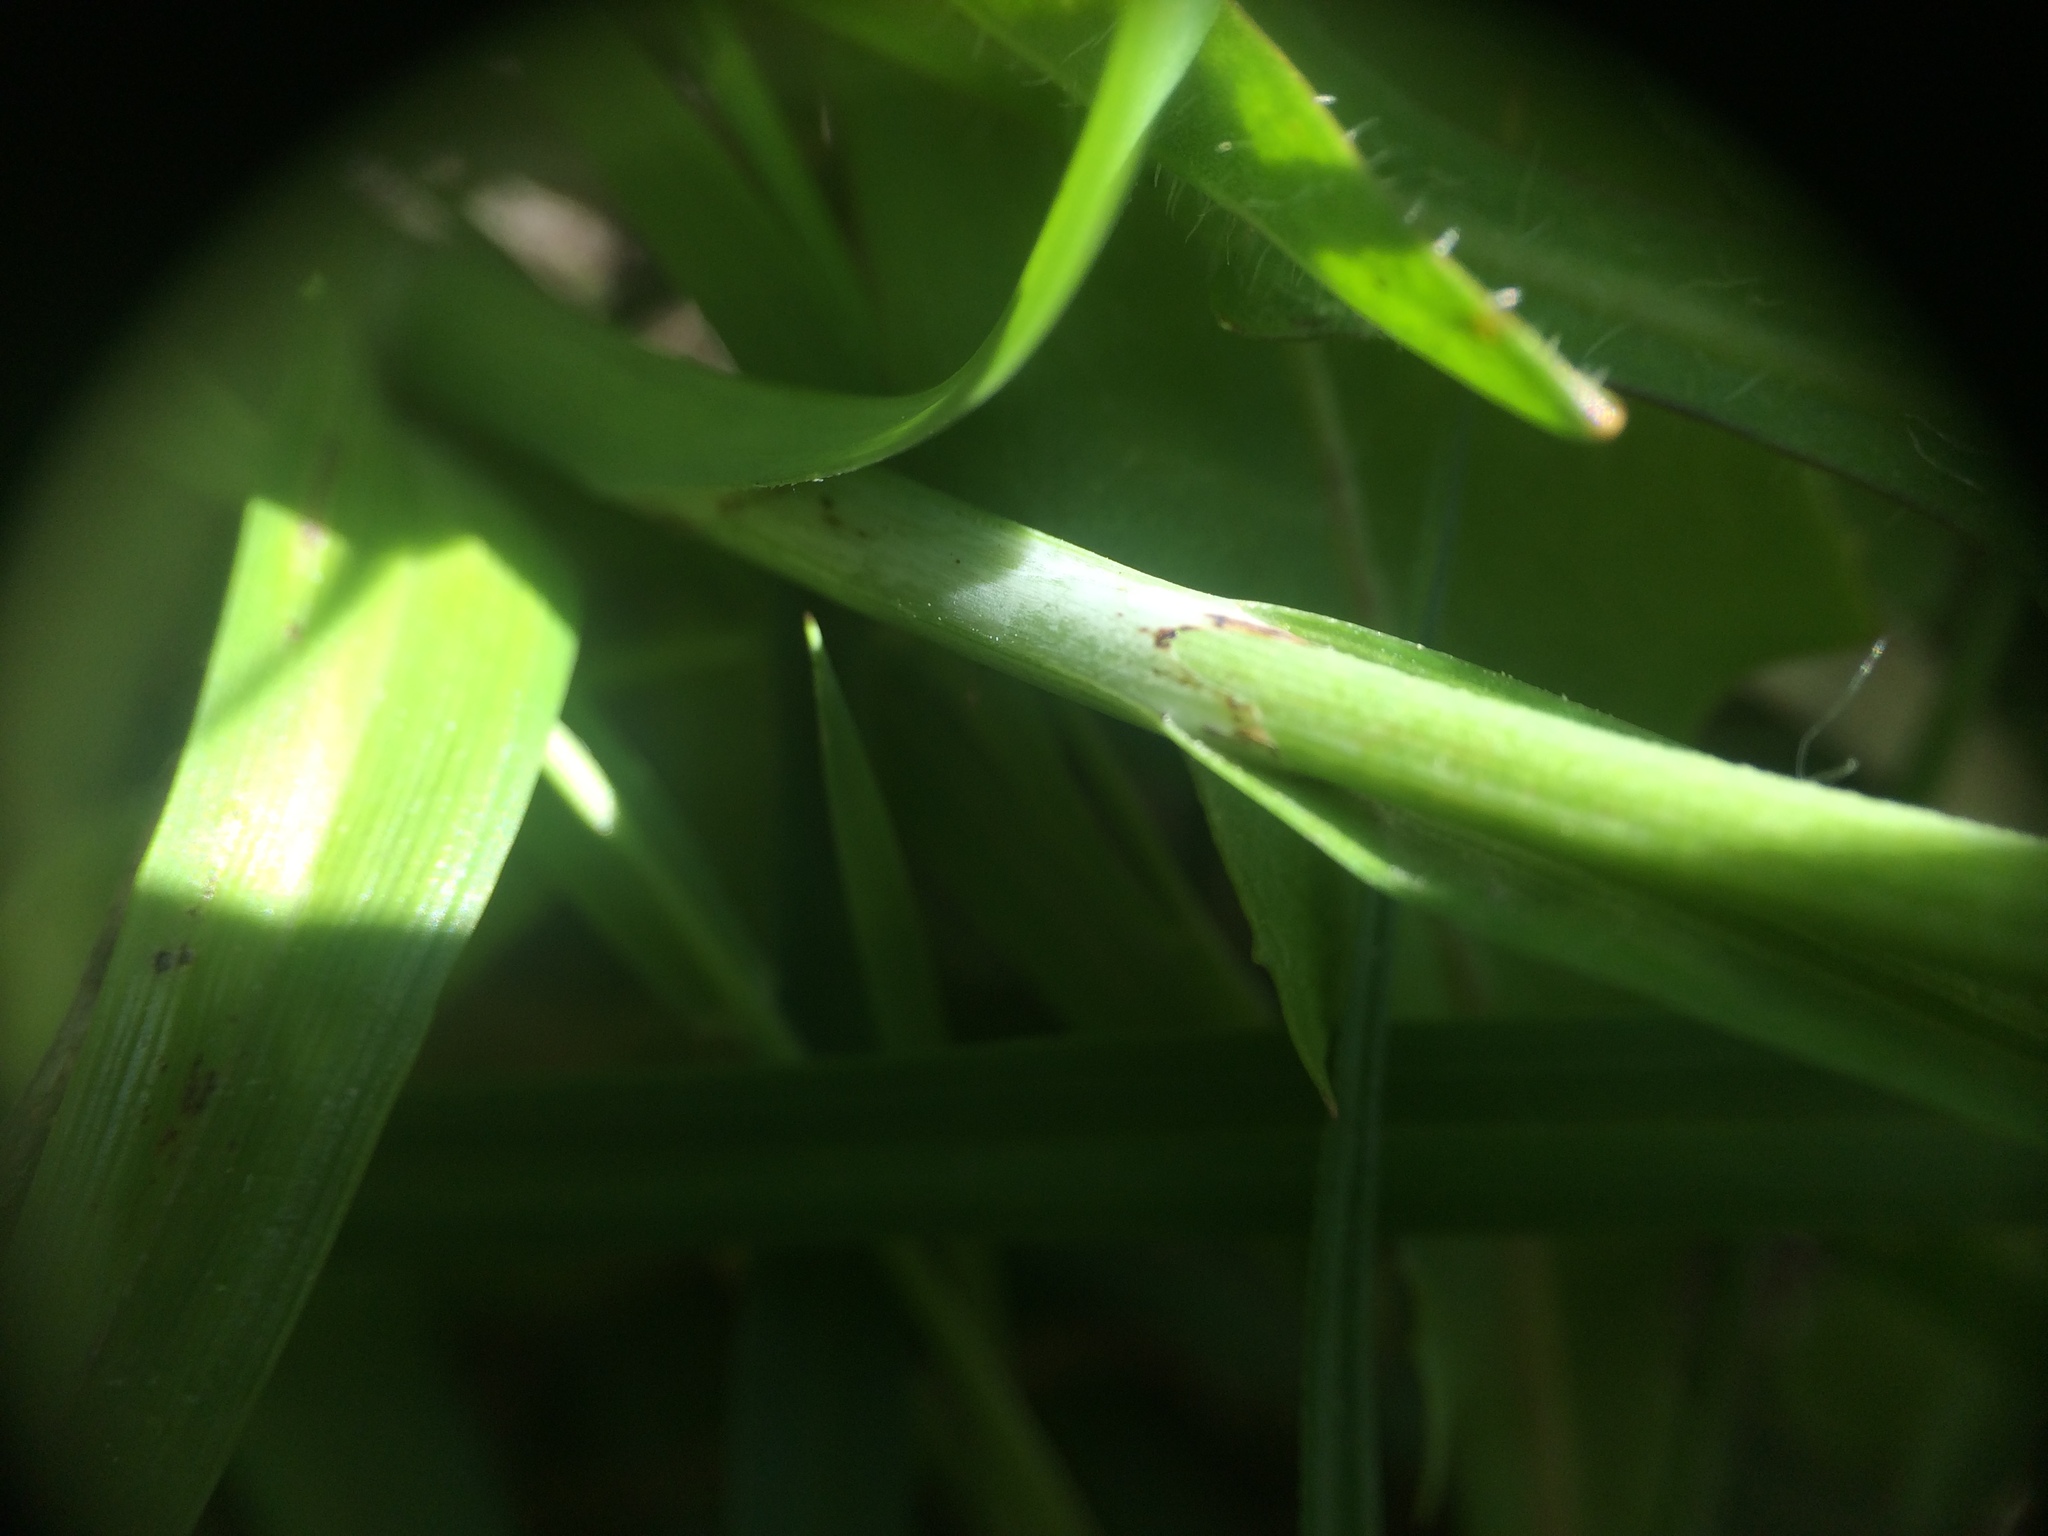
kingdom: Plantae
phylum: Tracheophyta
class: Liliopsida
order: Poales
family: Cyperaceae
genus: Carex
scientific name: Carex flacca
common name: Glaucous sedge
